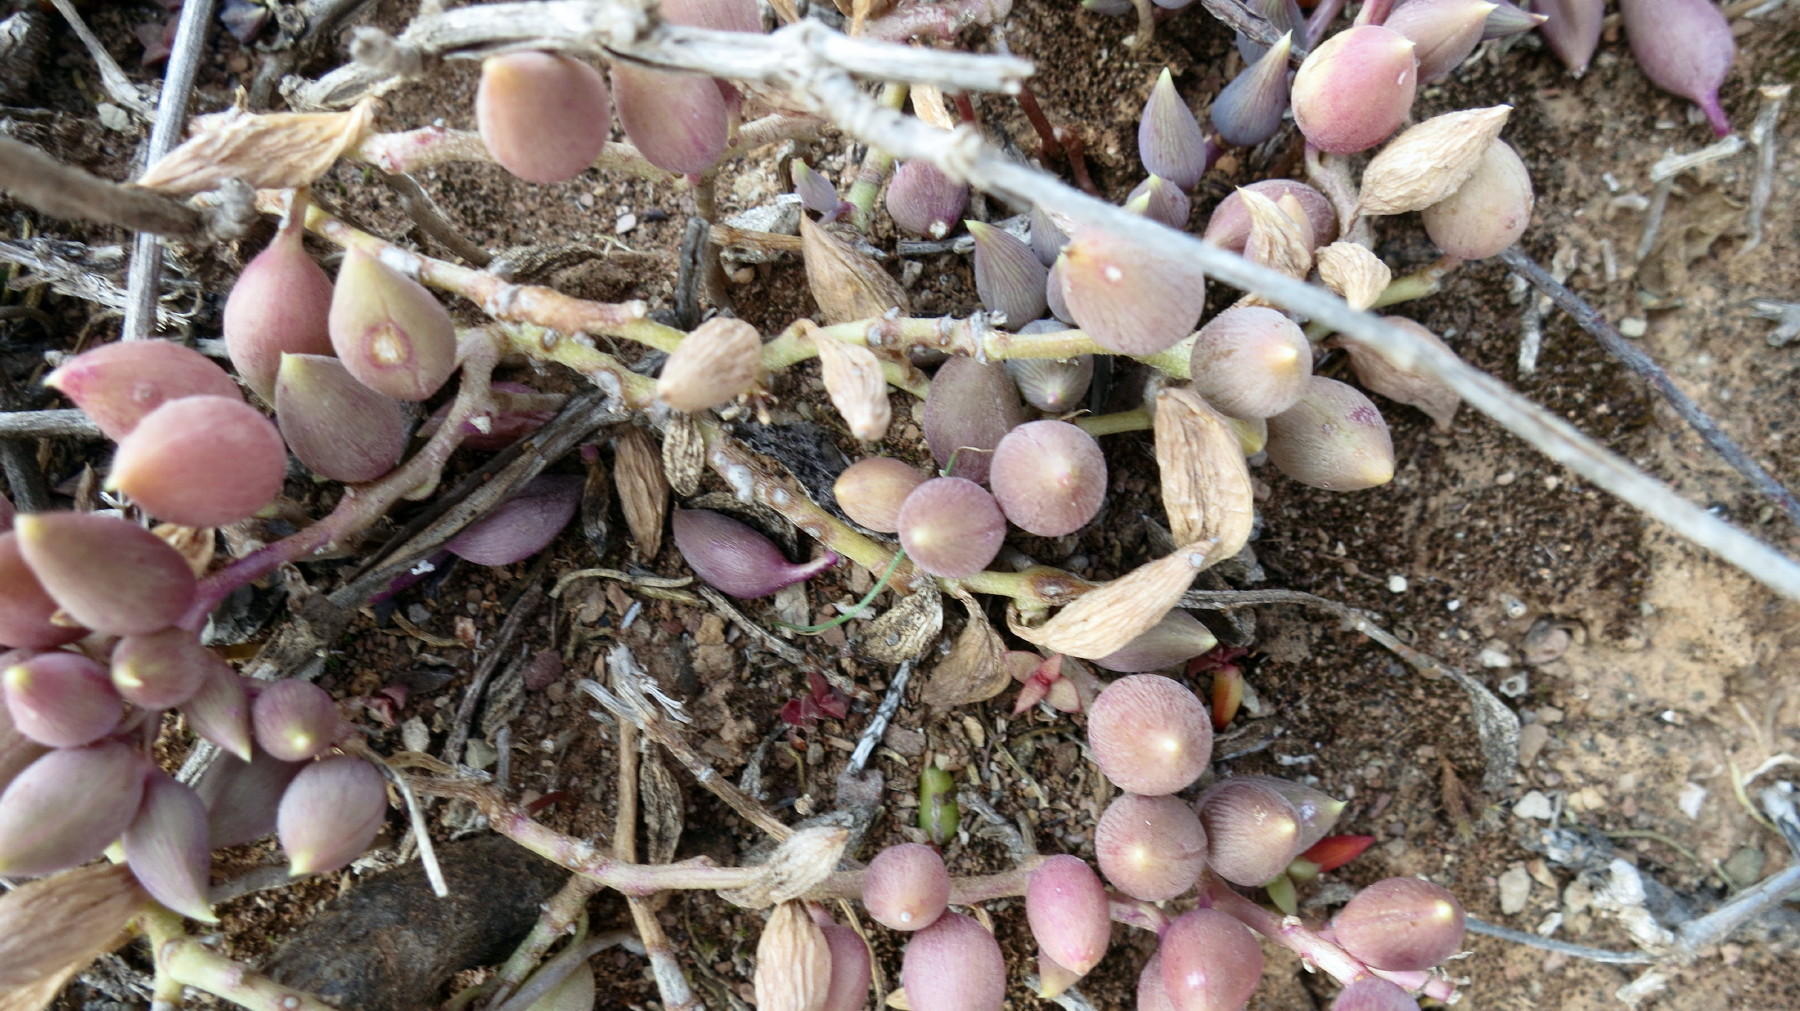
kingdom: Plantae
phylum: Tracheophyta
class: Magnoliopsida
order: Asterales
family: Asteraceae
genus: Curio
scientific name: Curio radicans
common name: Creeping-berry
